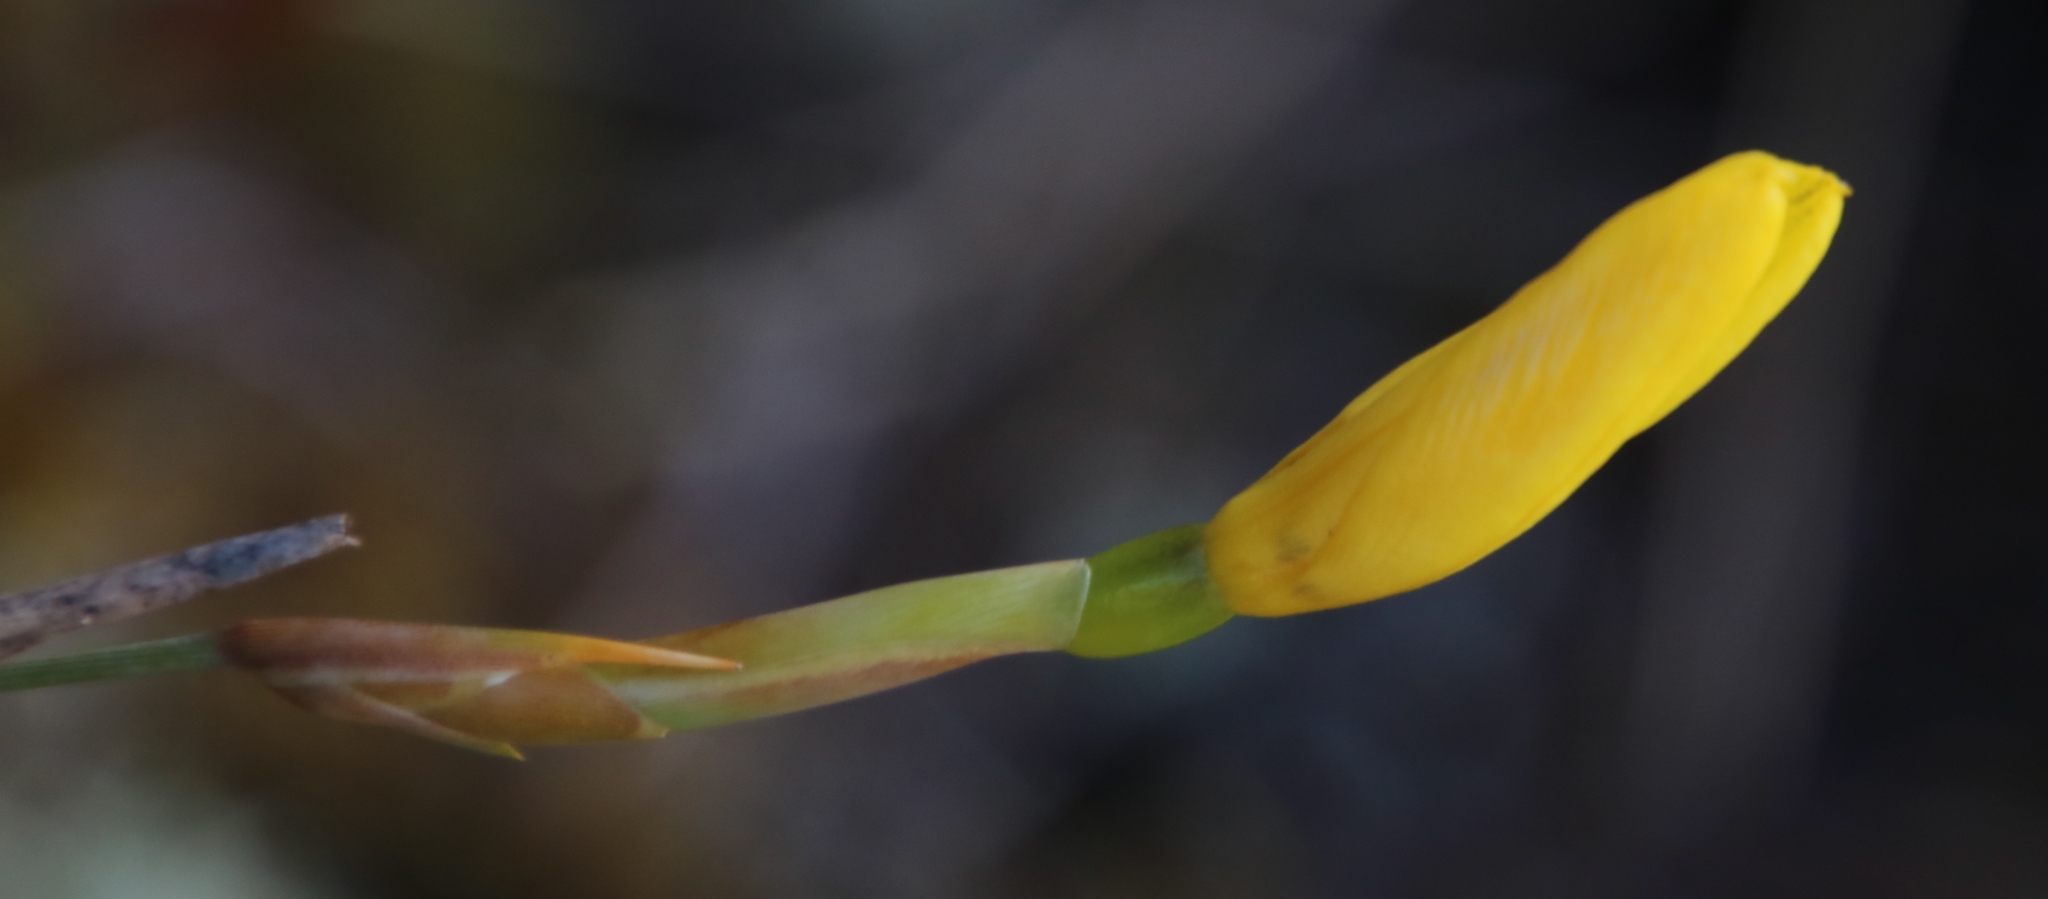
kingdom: Plantae
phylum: Tracheophyta
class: Liliopsida
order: Asparagales
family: Iridaceae
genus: Bobartia
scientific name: Bobartia filiformis
